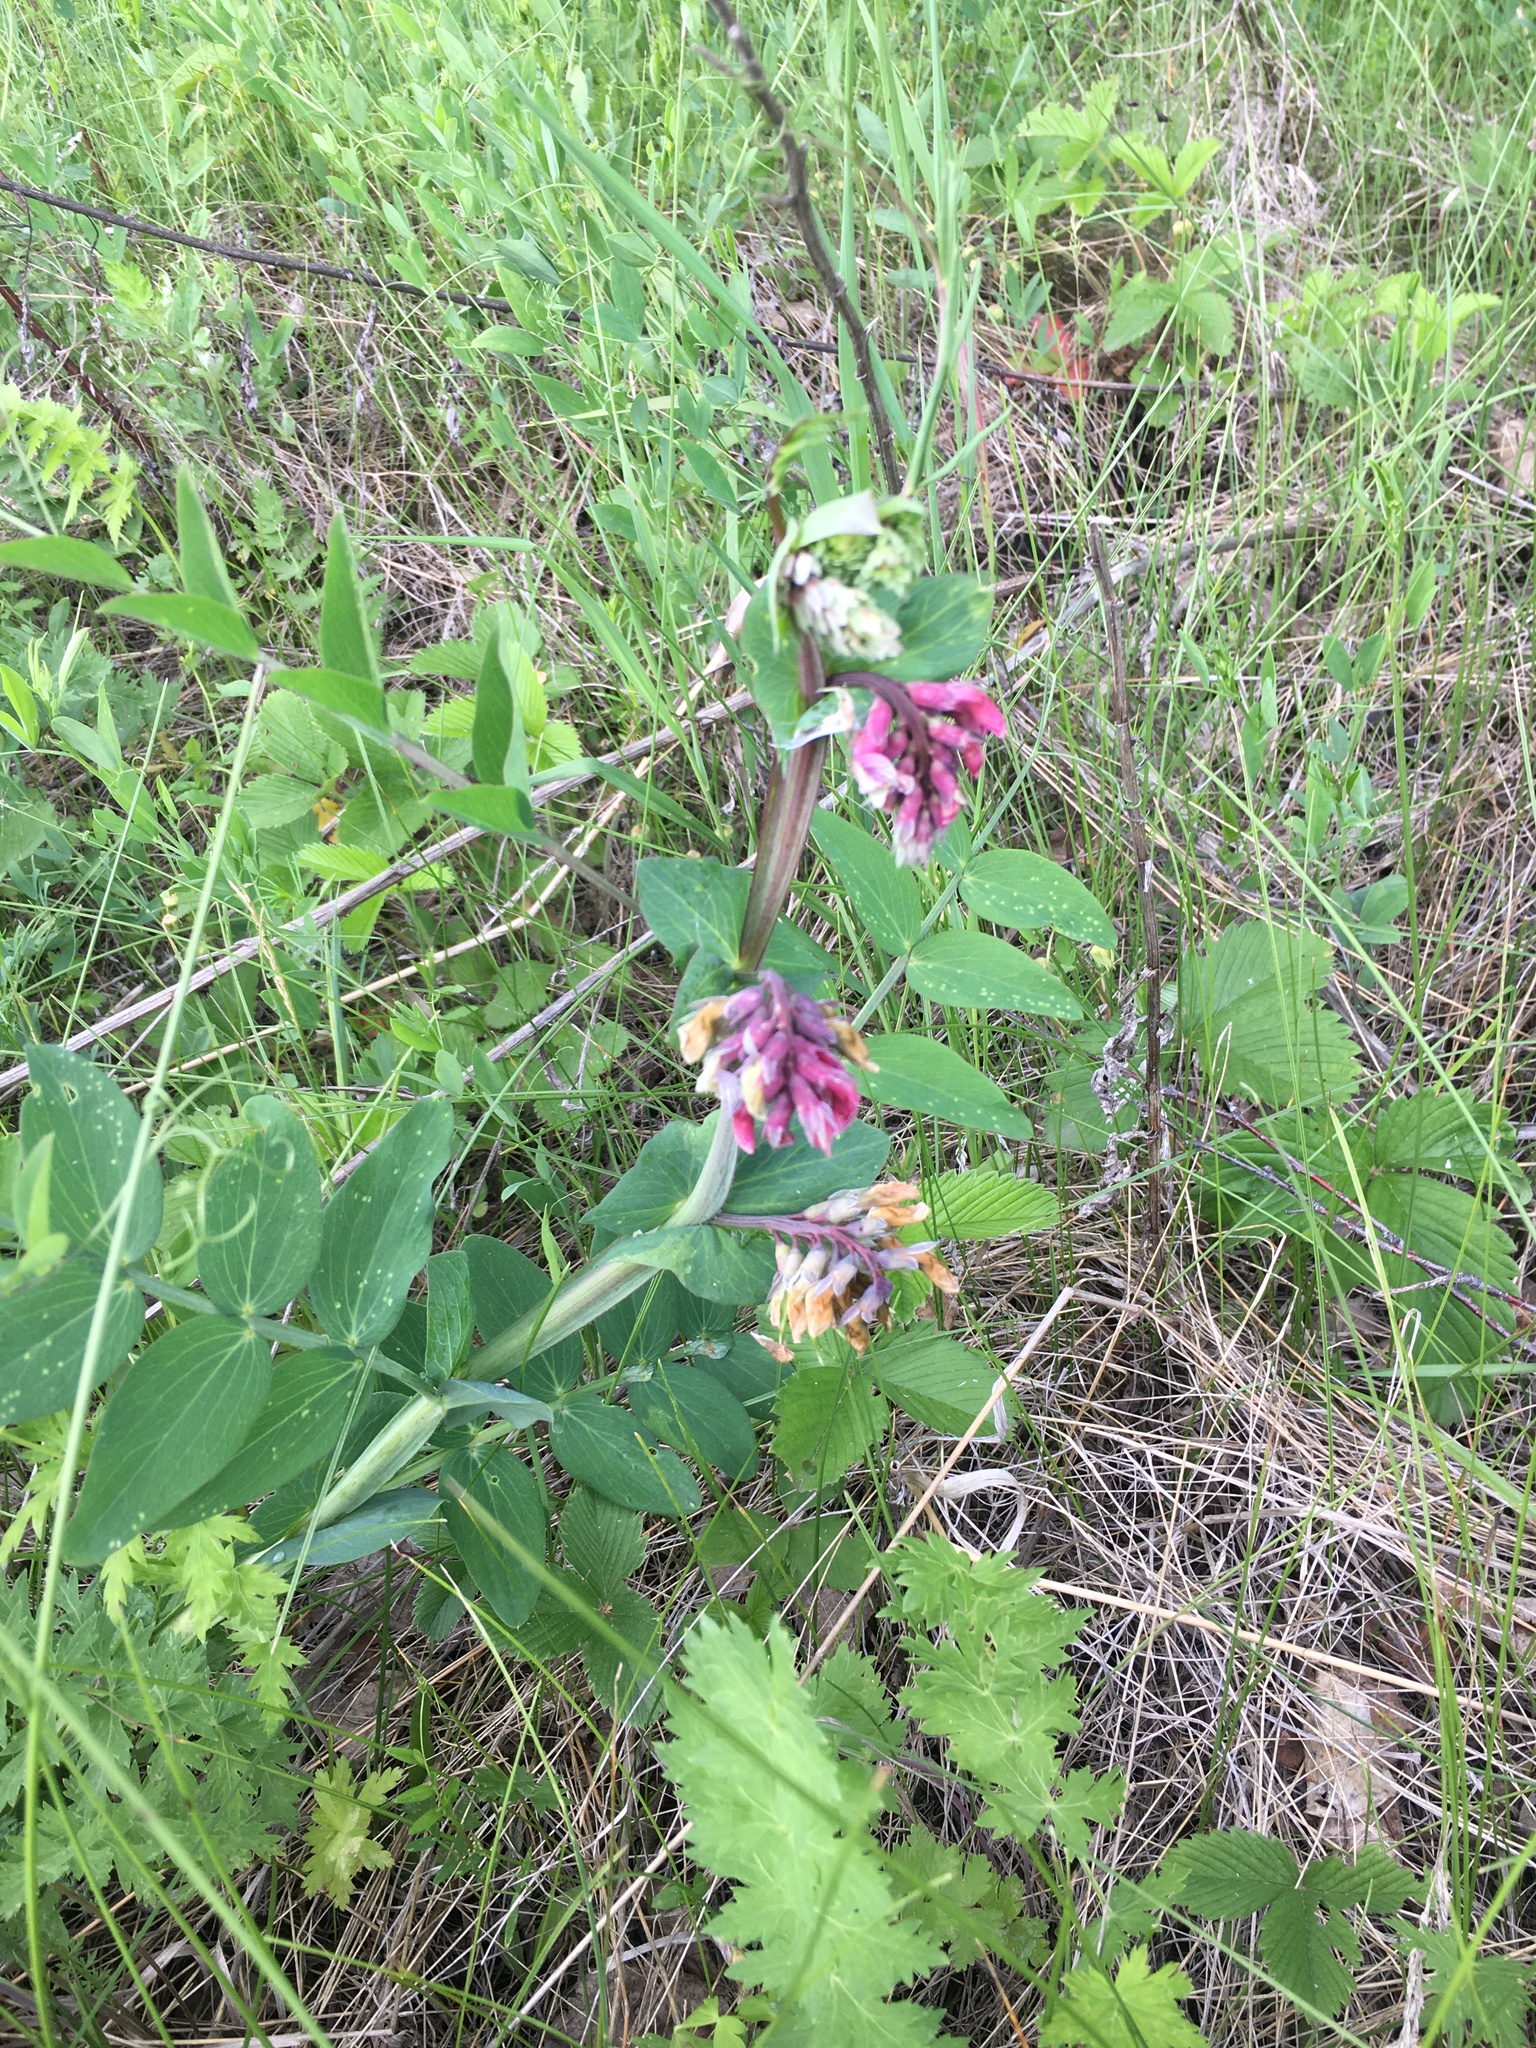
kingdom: Plantae
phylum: Tracheophyta
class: Magnoliopsida
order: Fabales
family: Fabaceae
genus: Lathyrus
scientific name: Lathyrus pisiformis
